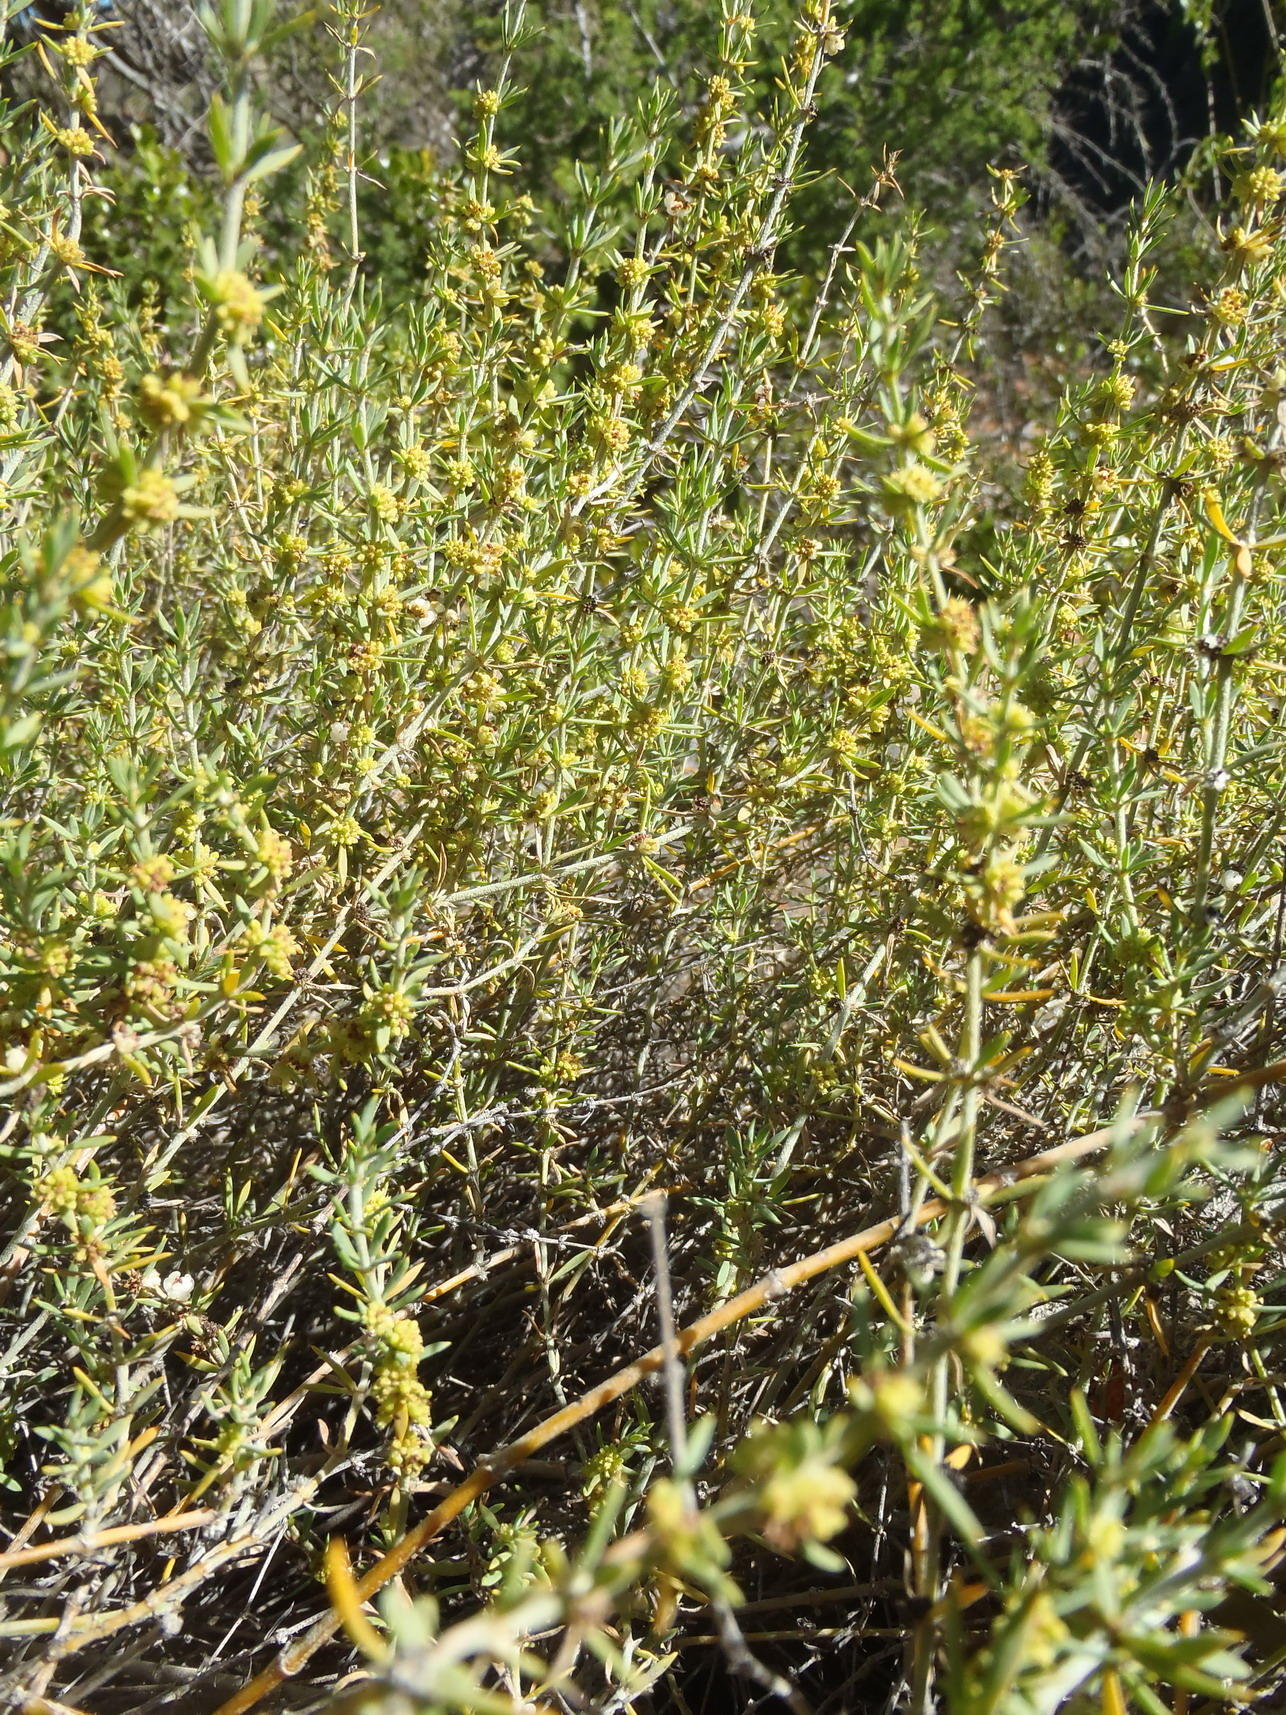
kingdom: Plantae
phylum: Tracheophyta
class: Magnoliopsida
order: Caryophyllales
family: Caryophyllaceae
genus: Pollichia
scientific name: Pollichia campestris
